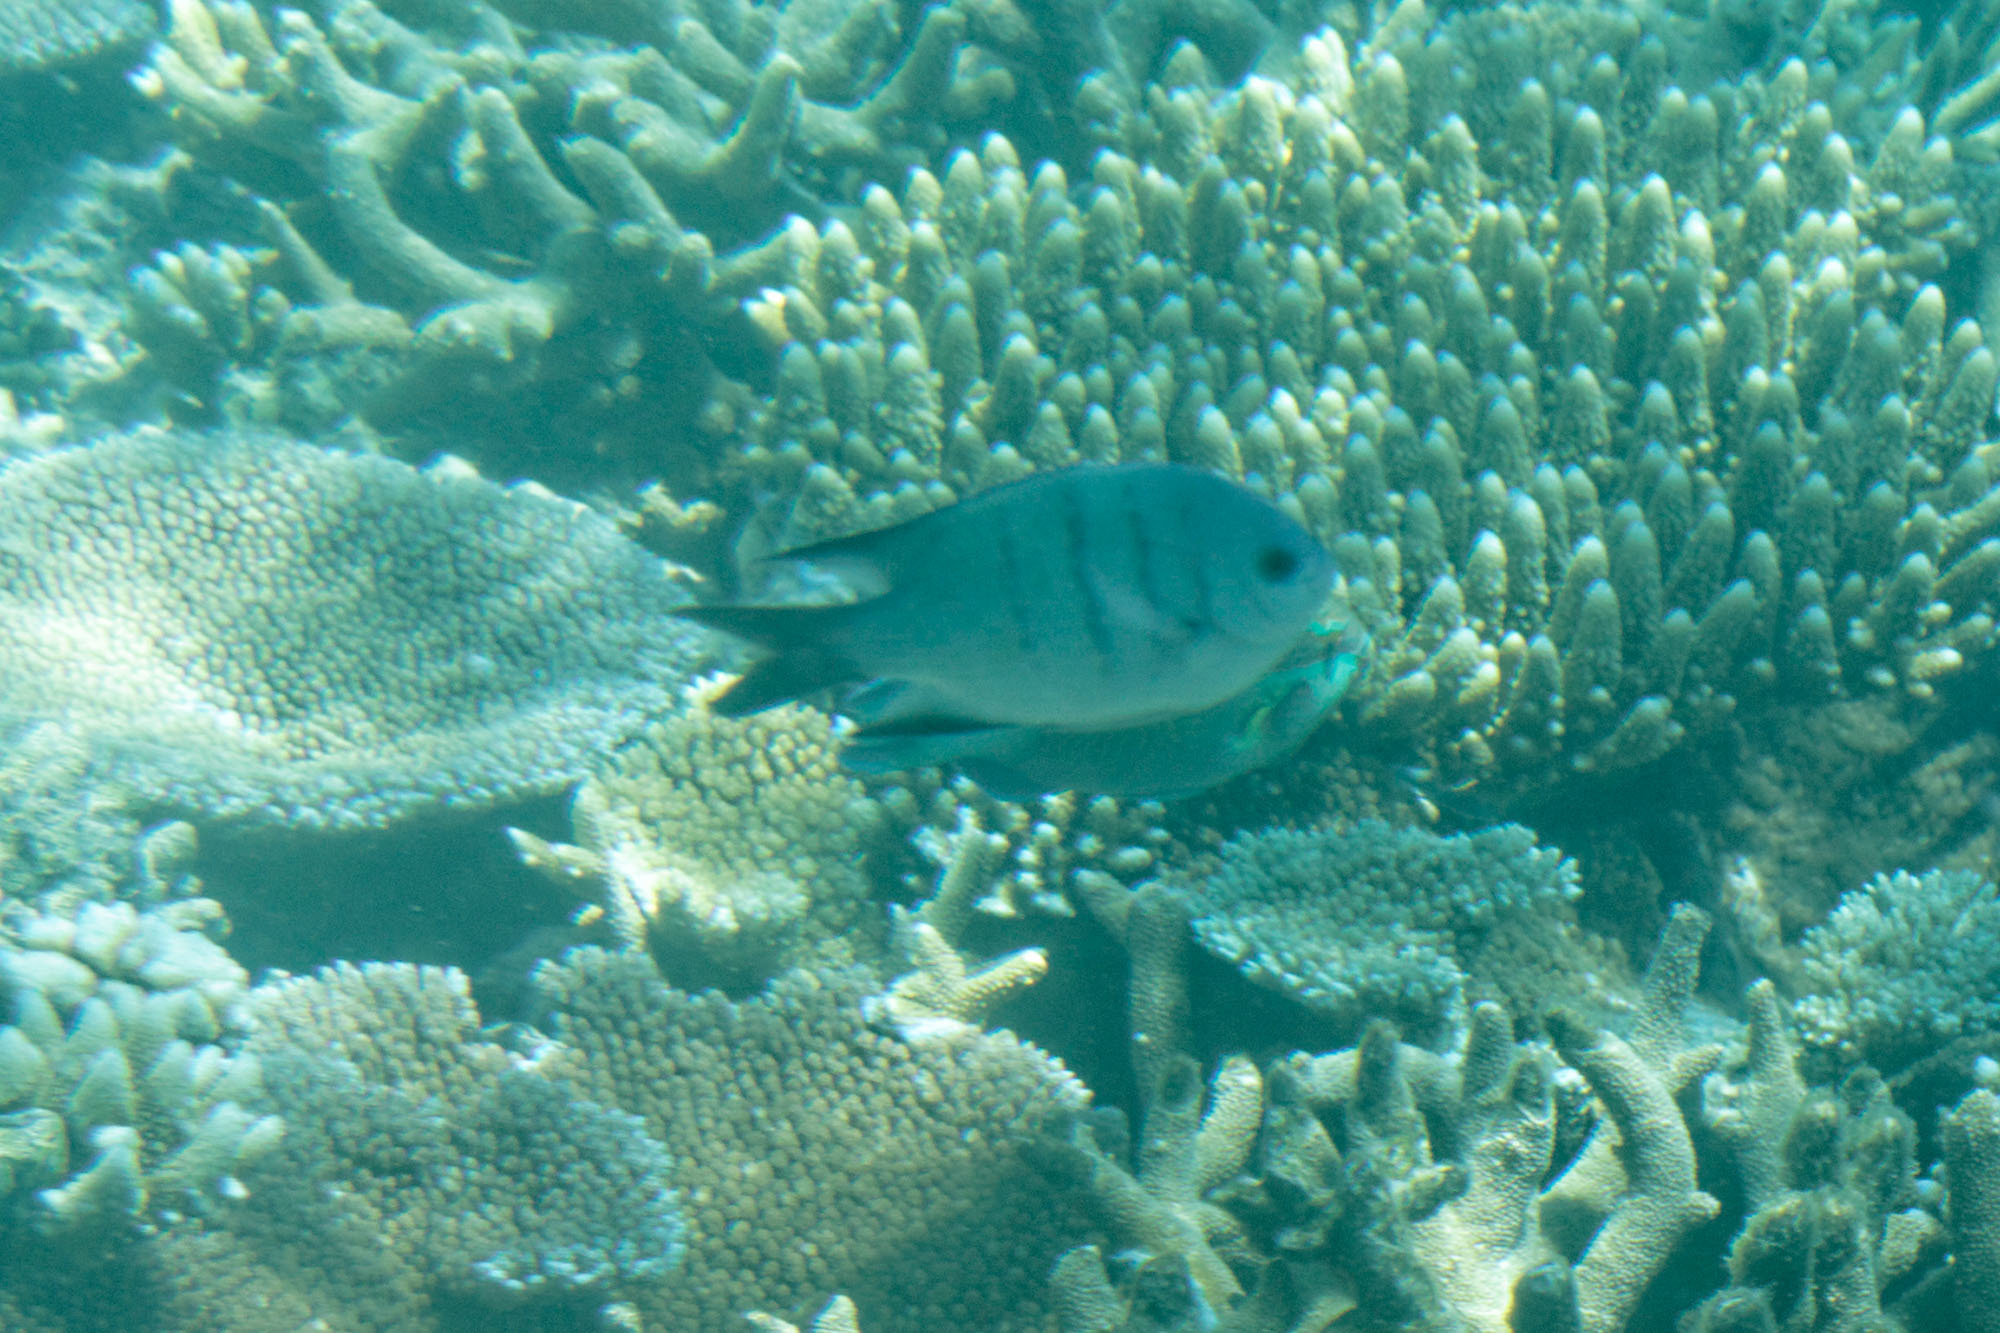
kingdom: Animalia
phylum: Chordata
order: Perciformes
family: Pomacentridae
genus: Abudefduf
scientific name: Abudefduf whitleyi
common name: Whitley's seargent
